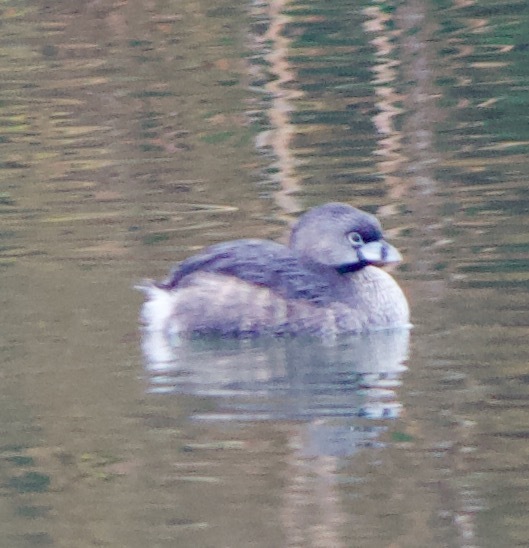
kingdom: Animalia
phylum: Chordata
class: Aves
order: Podicipediformes
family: Podicipedidae
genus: Podilymbus
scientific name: Podilymbus podiceps
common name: Pied-billed grebe
